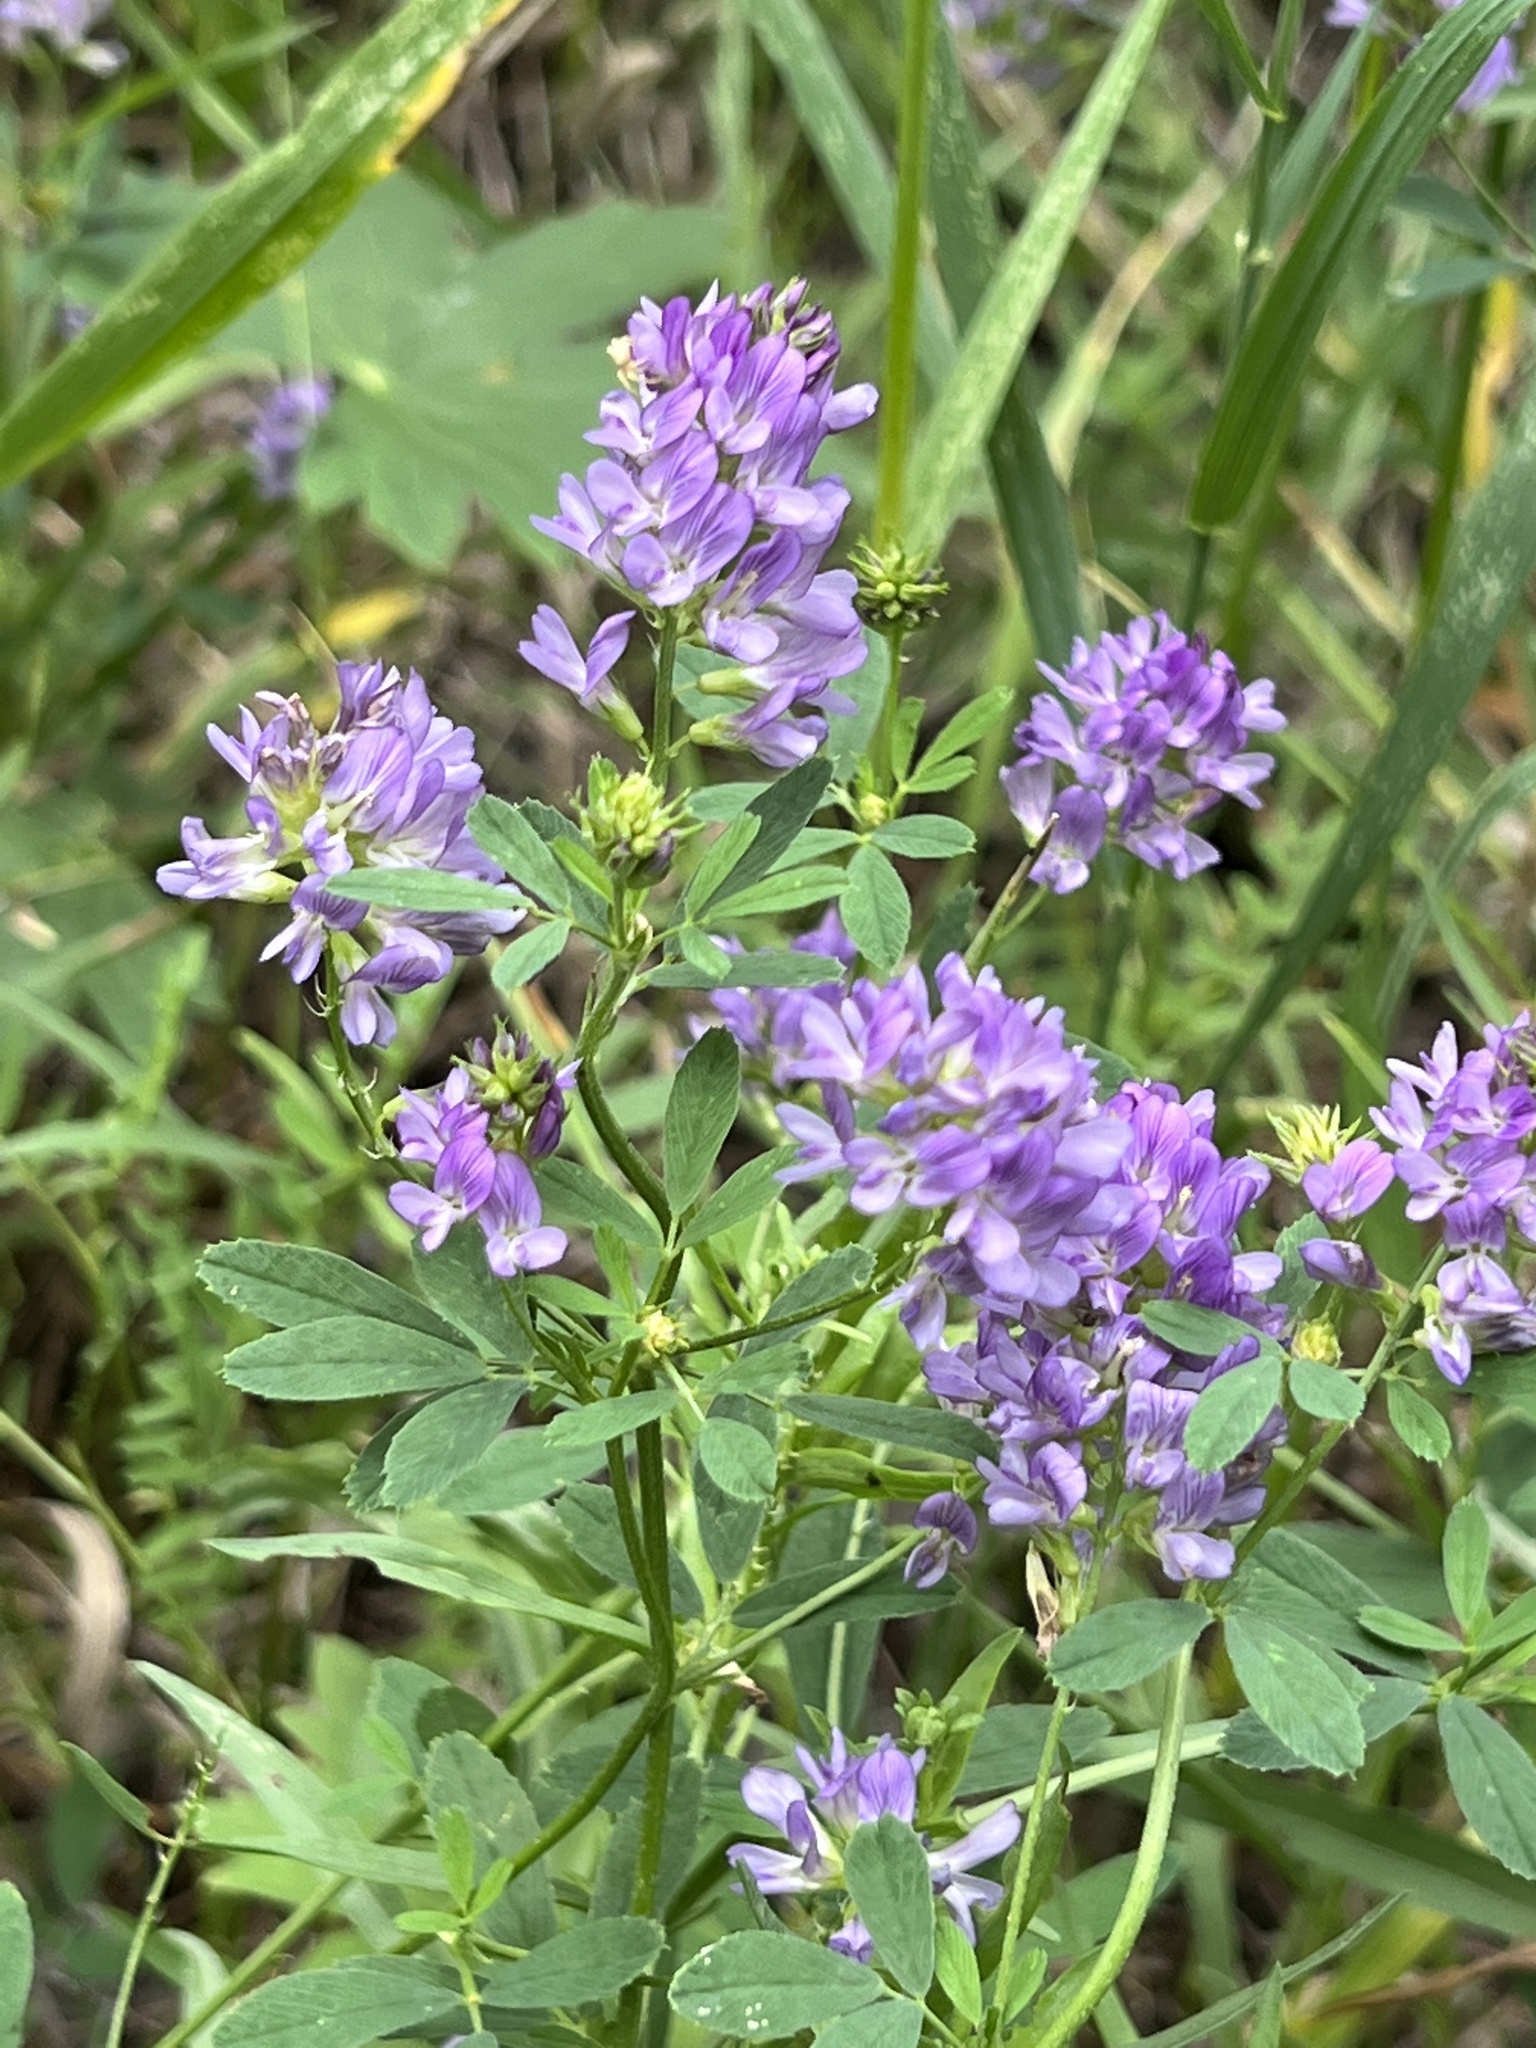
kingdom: Plantae
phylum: Tracheophyta
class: Magnoliopsida
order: Fabales
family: Fabaceae
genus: Medicago
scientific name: Medicago sativa
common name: Alfalfa
